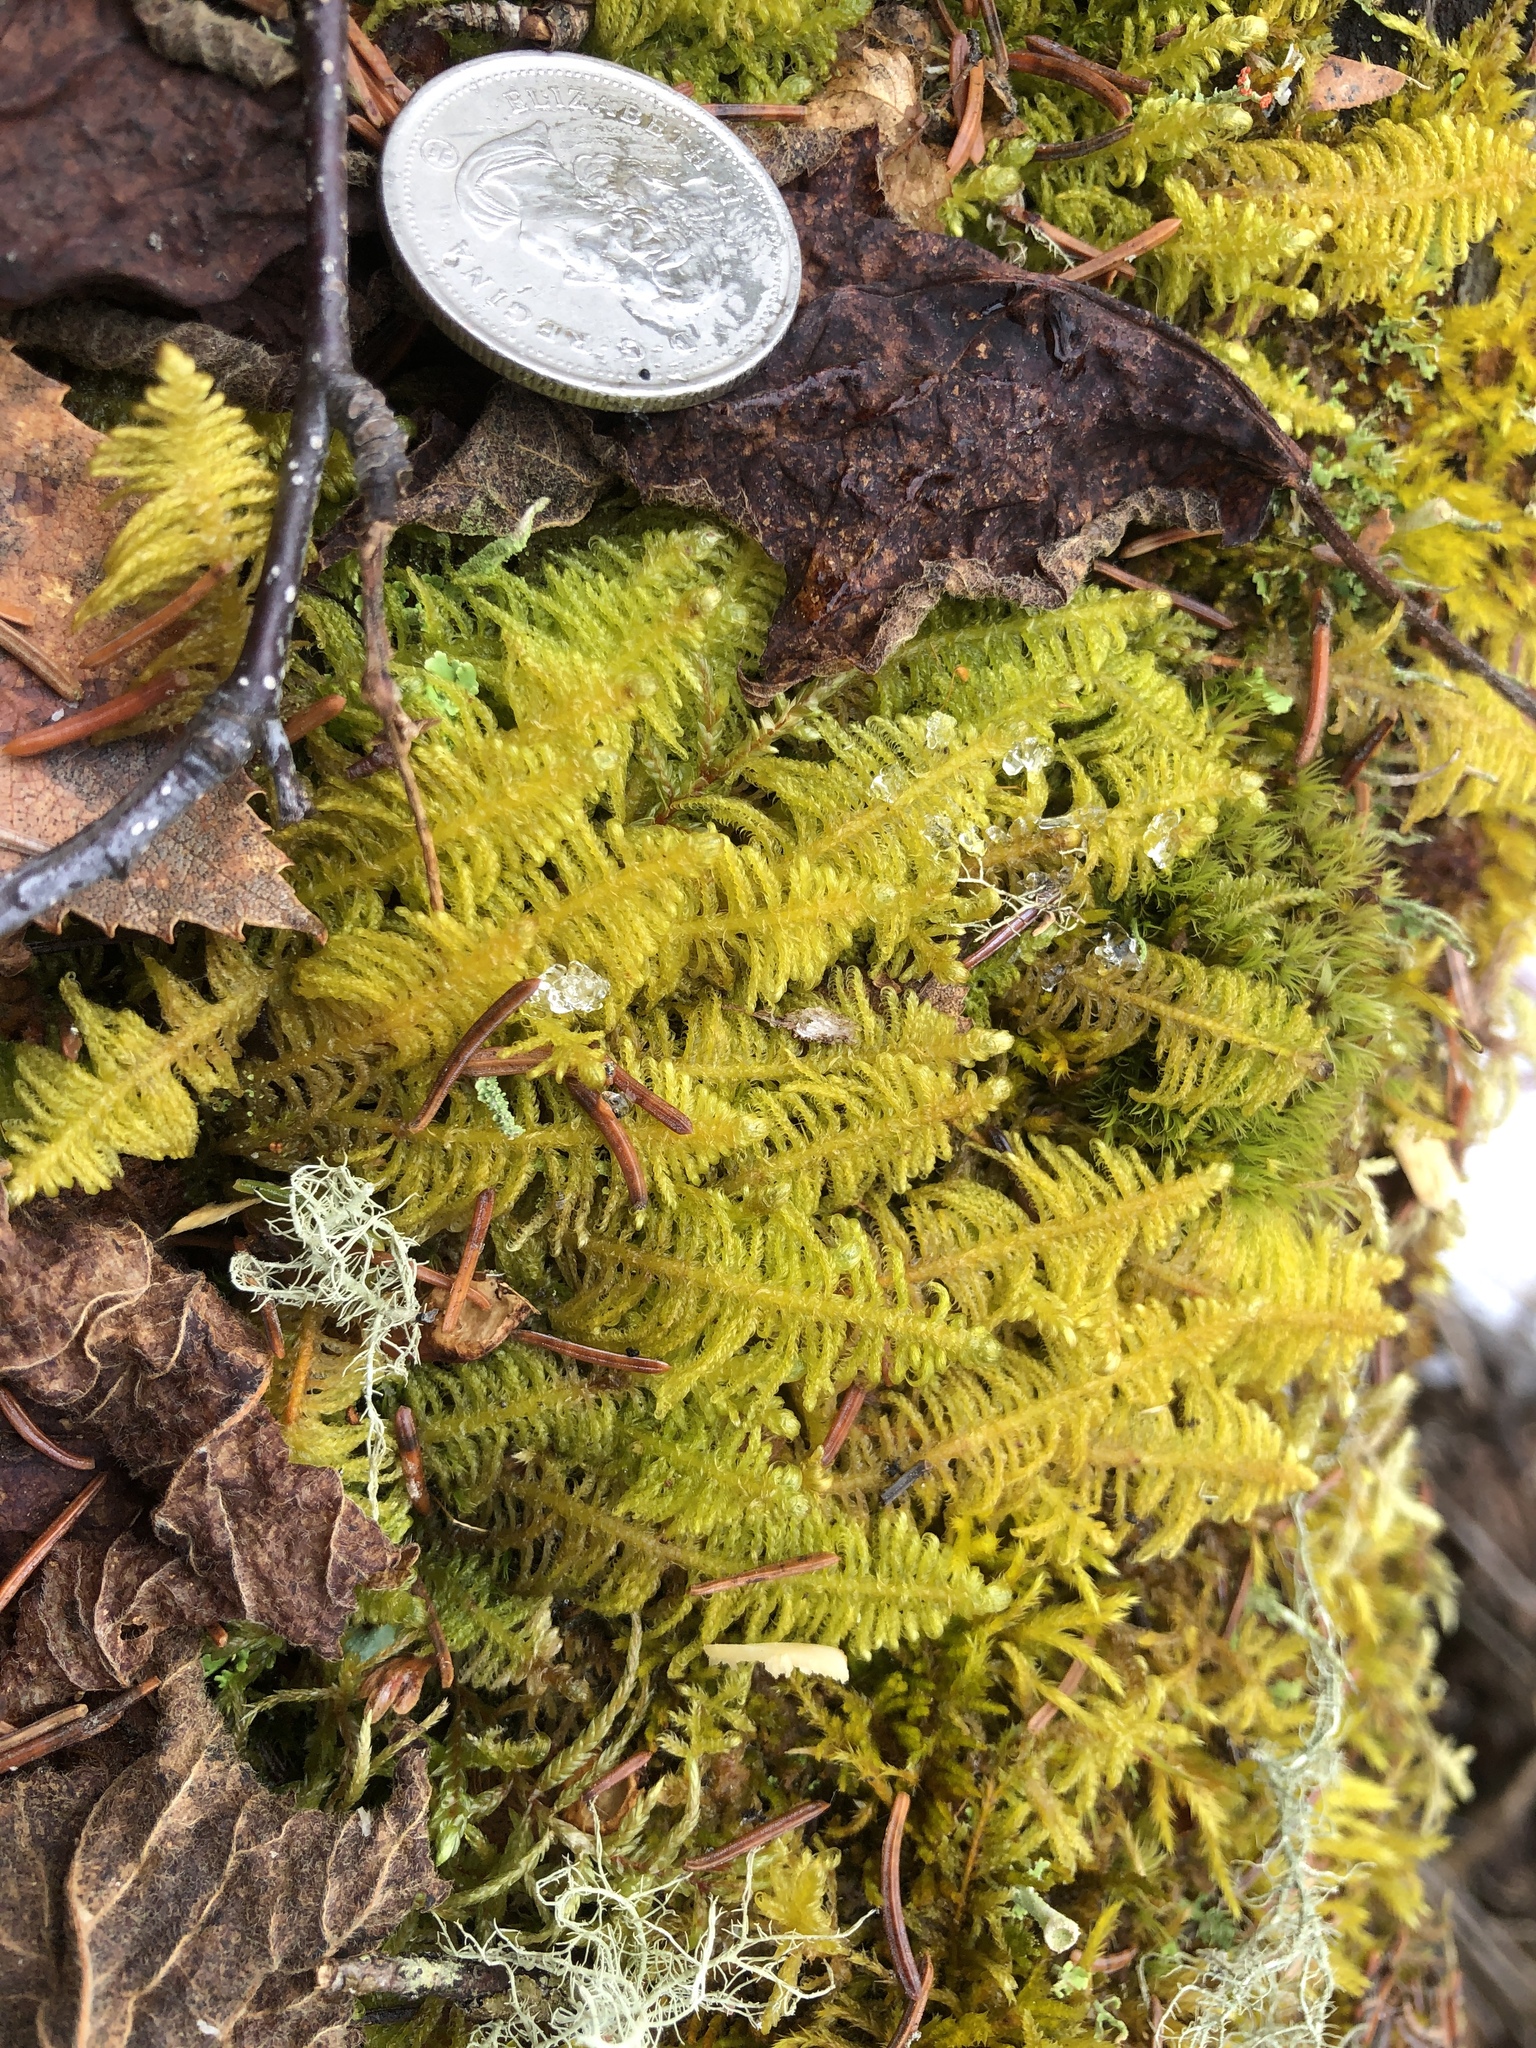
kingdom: Plantae
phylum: Bryophyta
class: Bryopsida
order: Hypnales
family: Pylaisiaceae
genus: Ptilium
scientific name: Ptilium crista-castrensis
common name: Knight's plume moss
